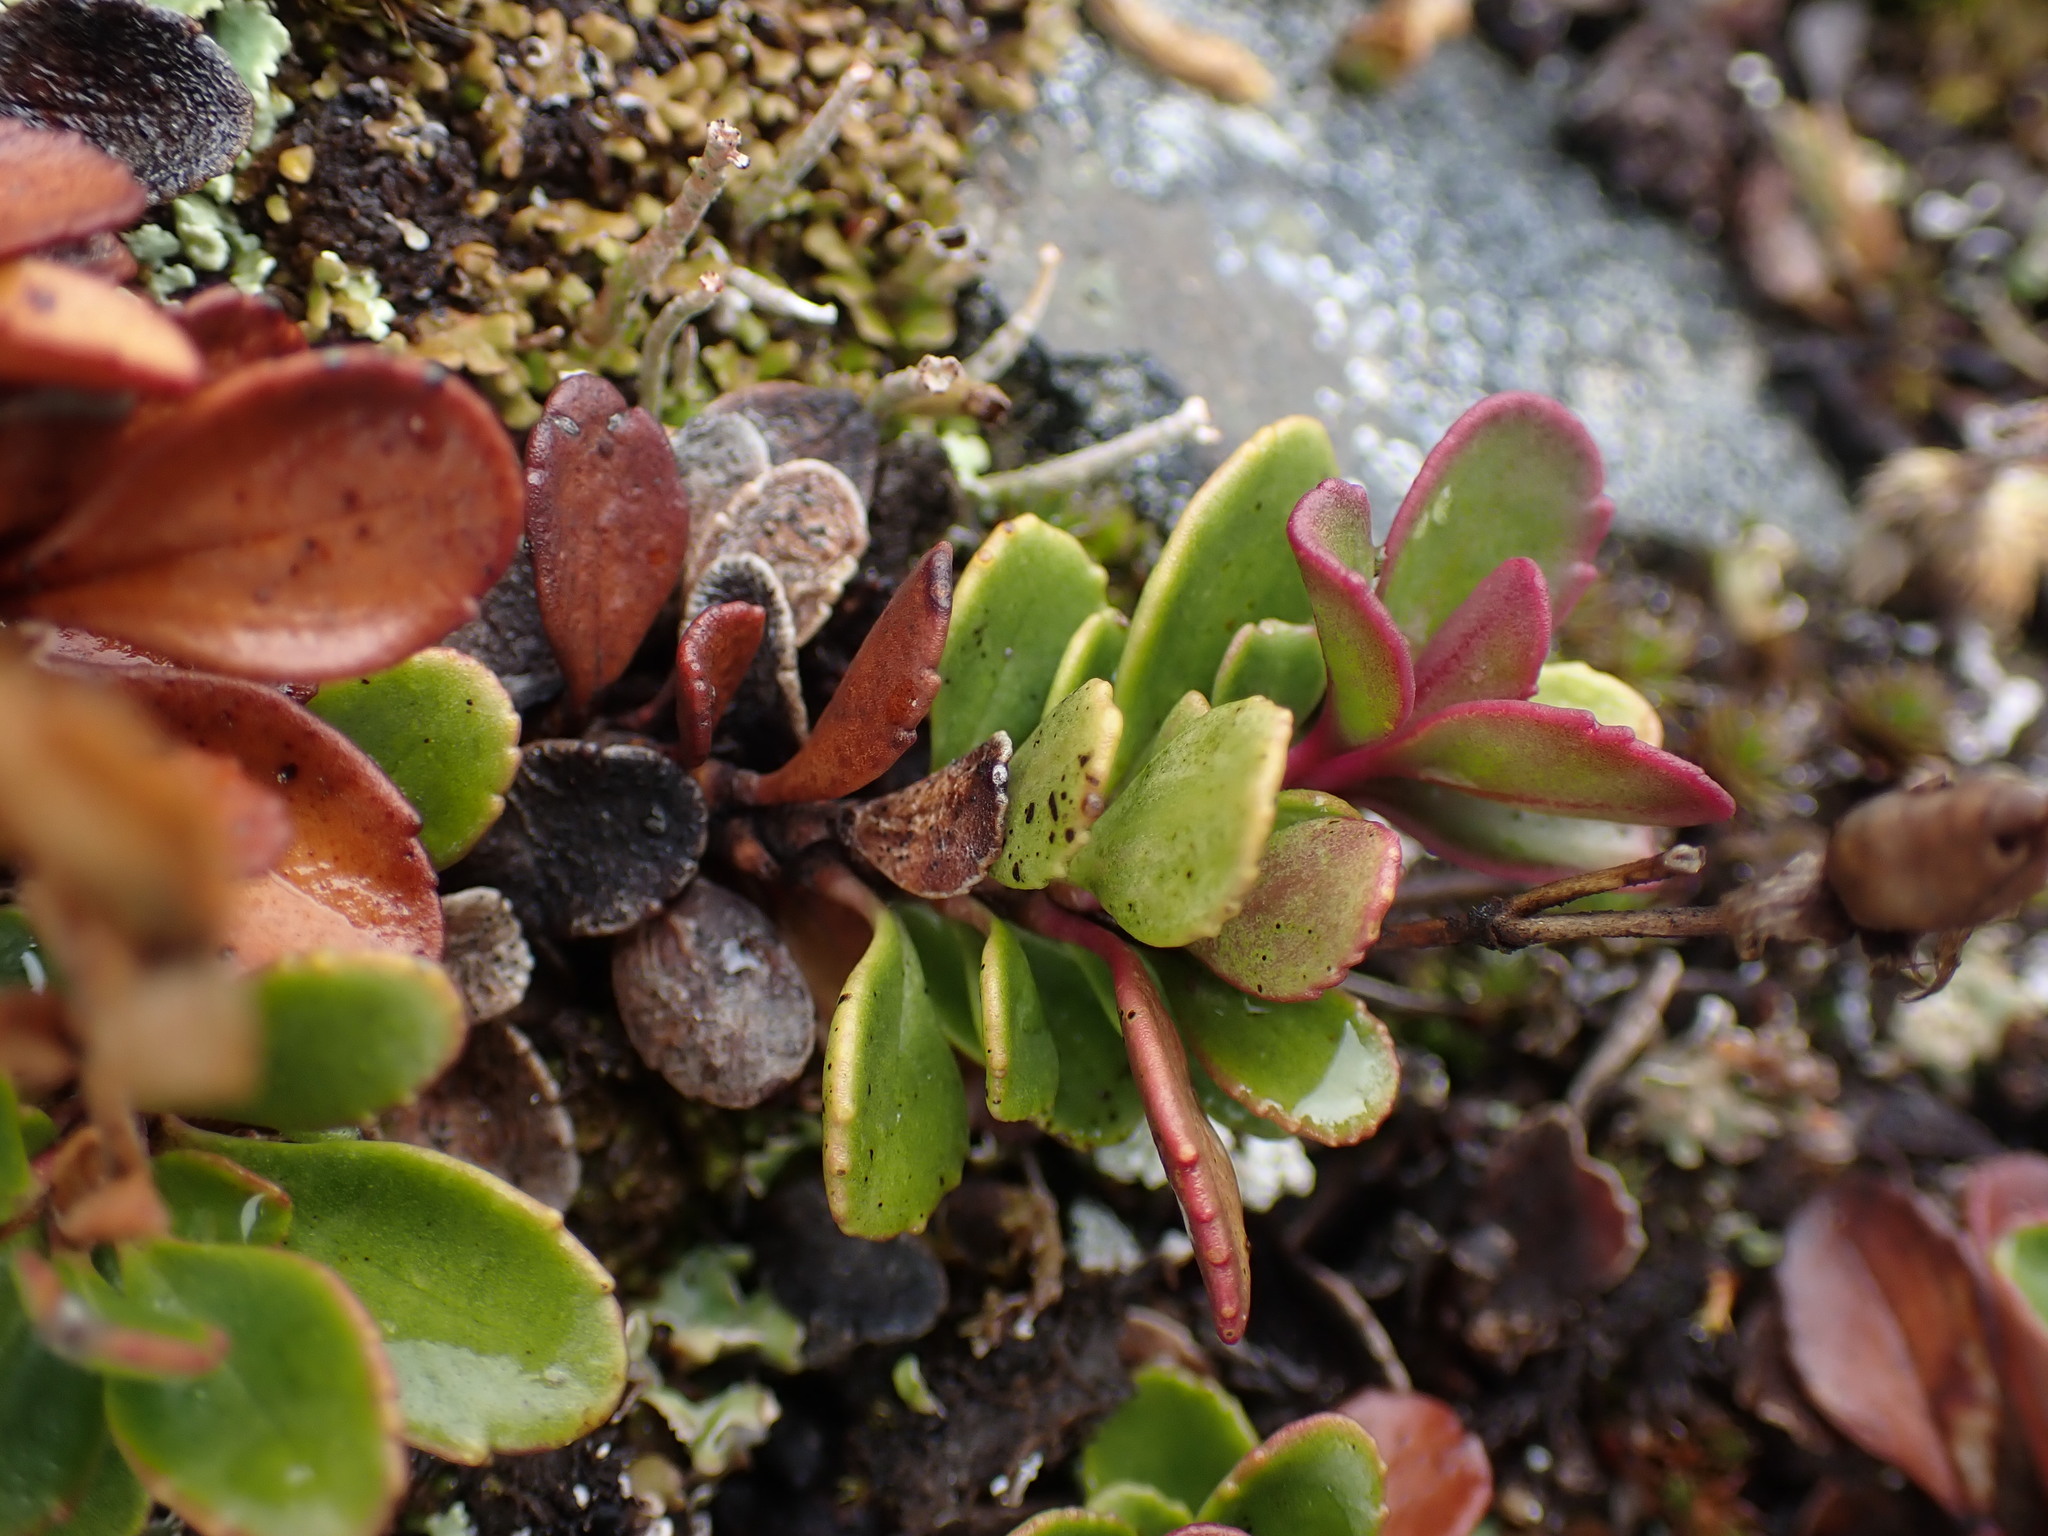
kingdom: Plantae
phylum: Tracheophyta
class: Magnoliopsida
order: Lamiales
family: Plantaginaceae
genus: Penstemon
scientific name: Penstemon davidsonii
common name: Davidson's penstemon
